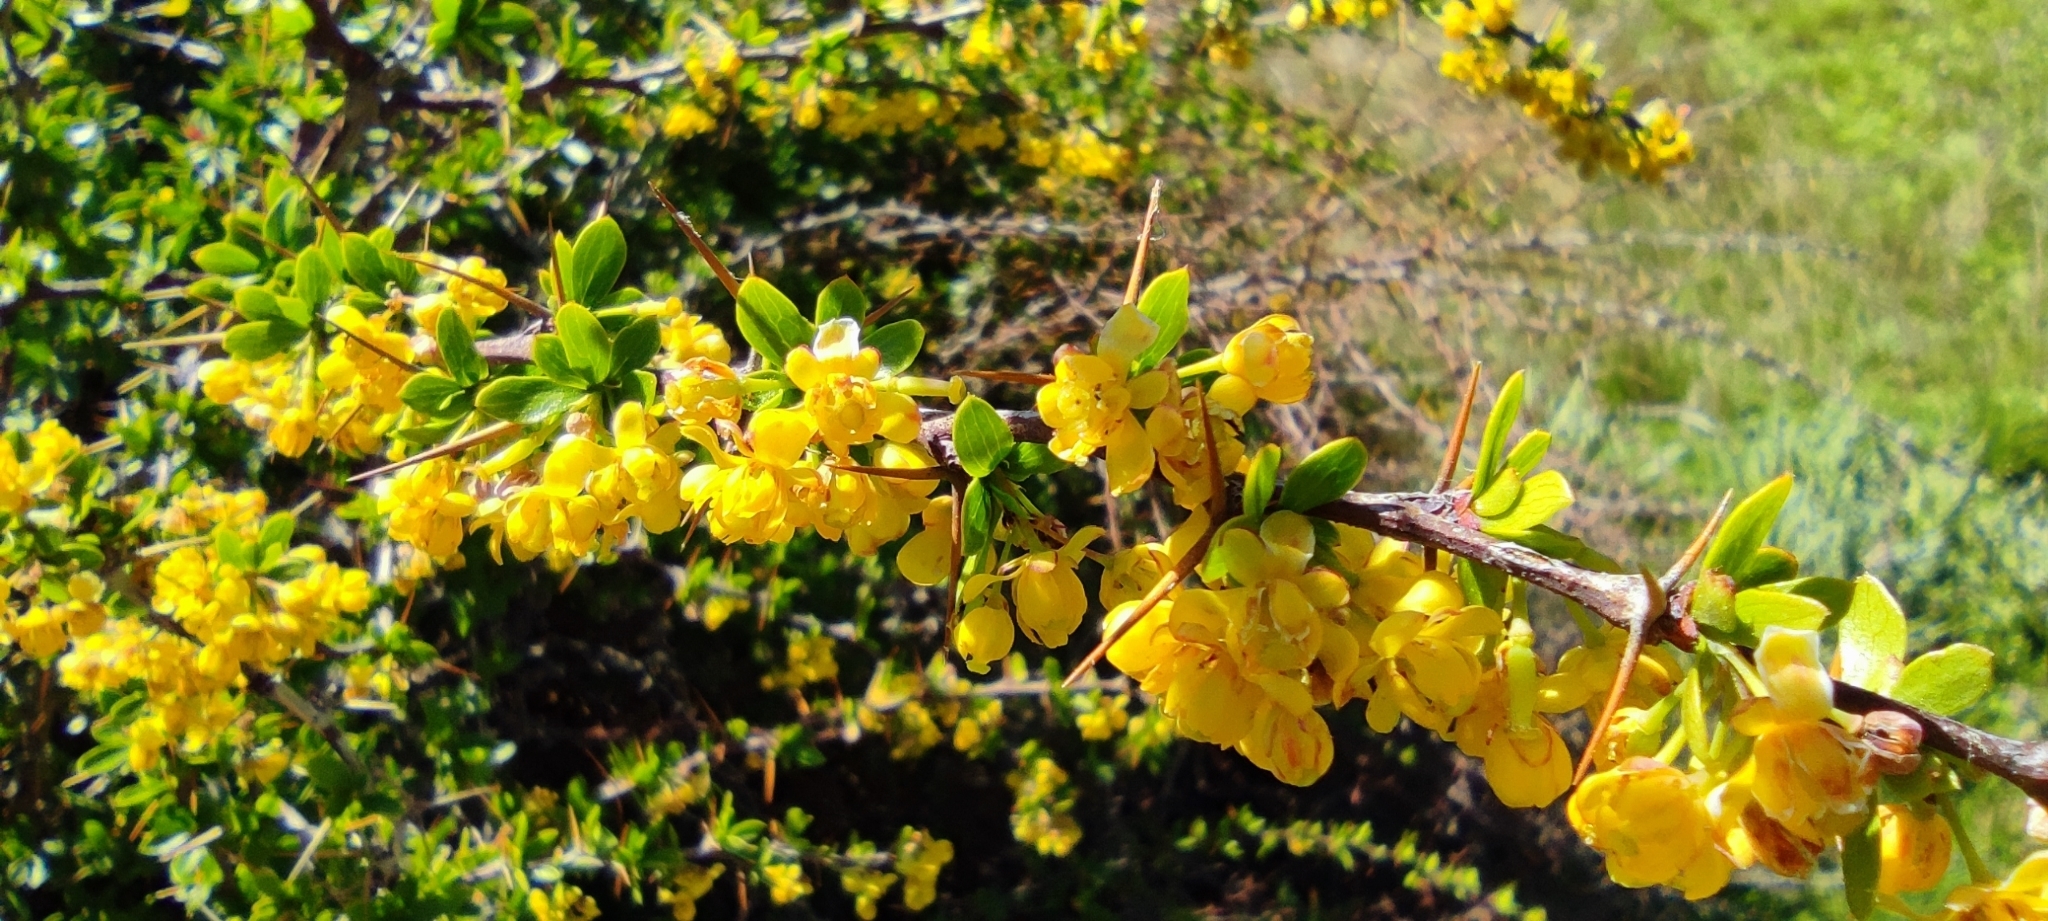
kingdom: Plantae
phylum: Tracheophyta
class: Magnoliopsida
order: Ranunculales
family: Berberidaceae
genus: Berberis
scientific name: Berberis hispanica
